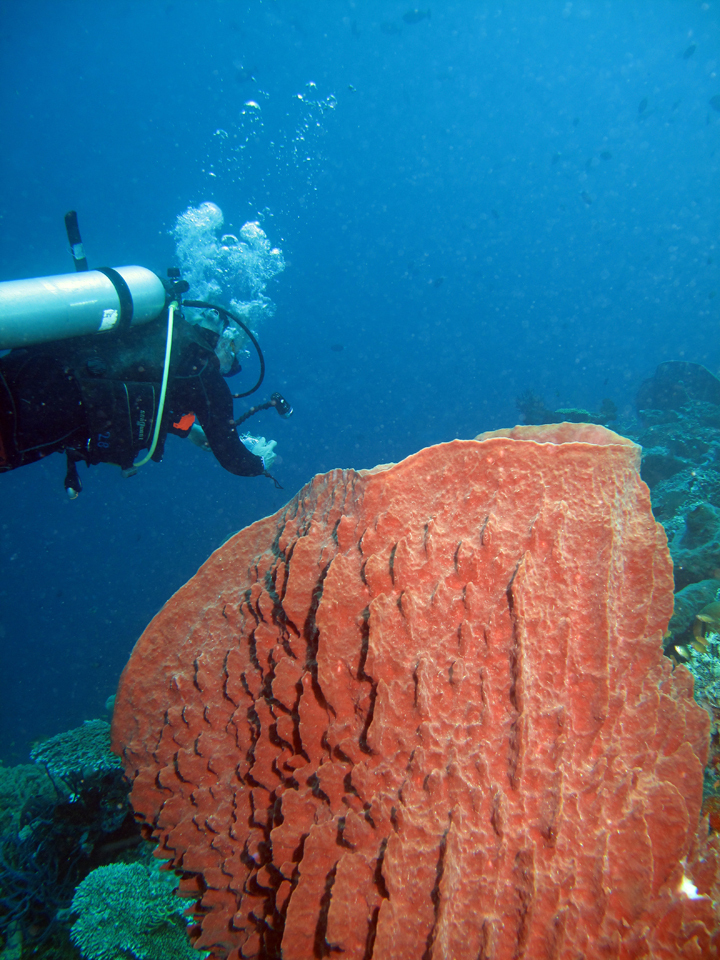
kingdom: Animalia
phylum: Porifera
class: Demospongiae
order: Haplosclerida
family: Petrosiidae
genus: Xestospongia
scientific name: Xestospongia testudinaria
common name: Barrel sponge
